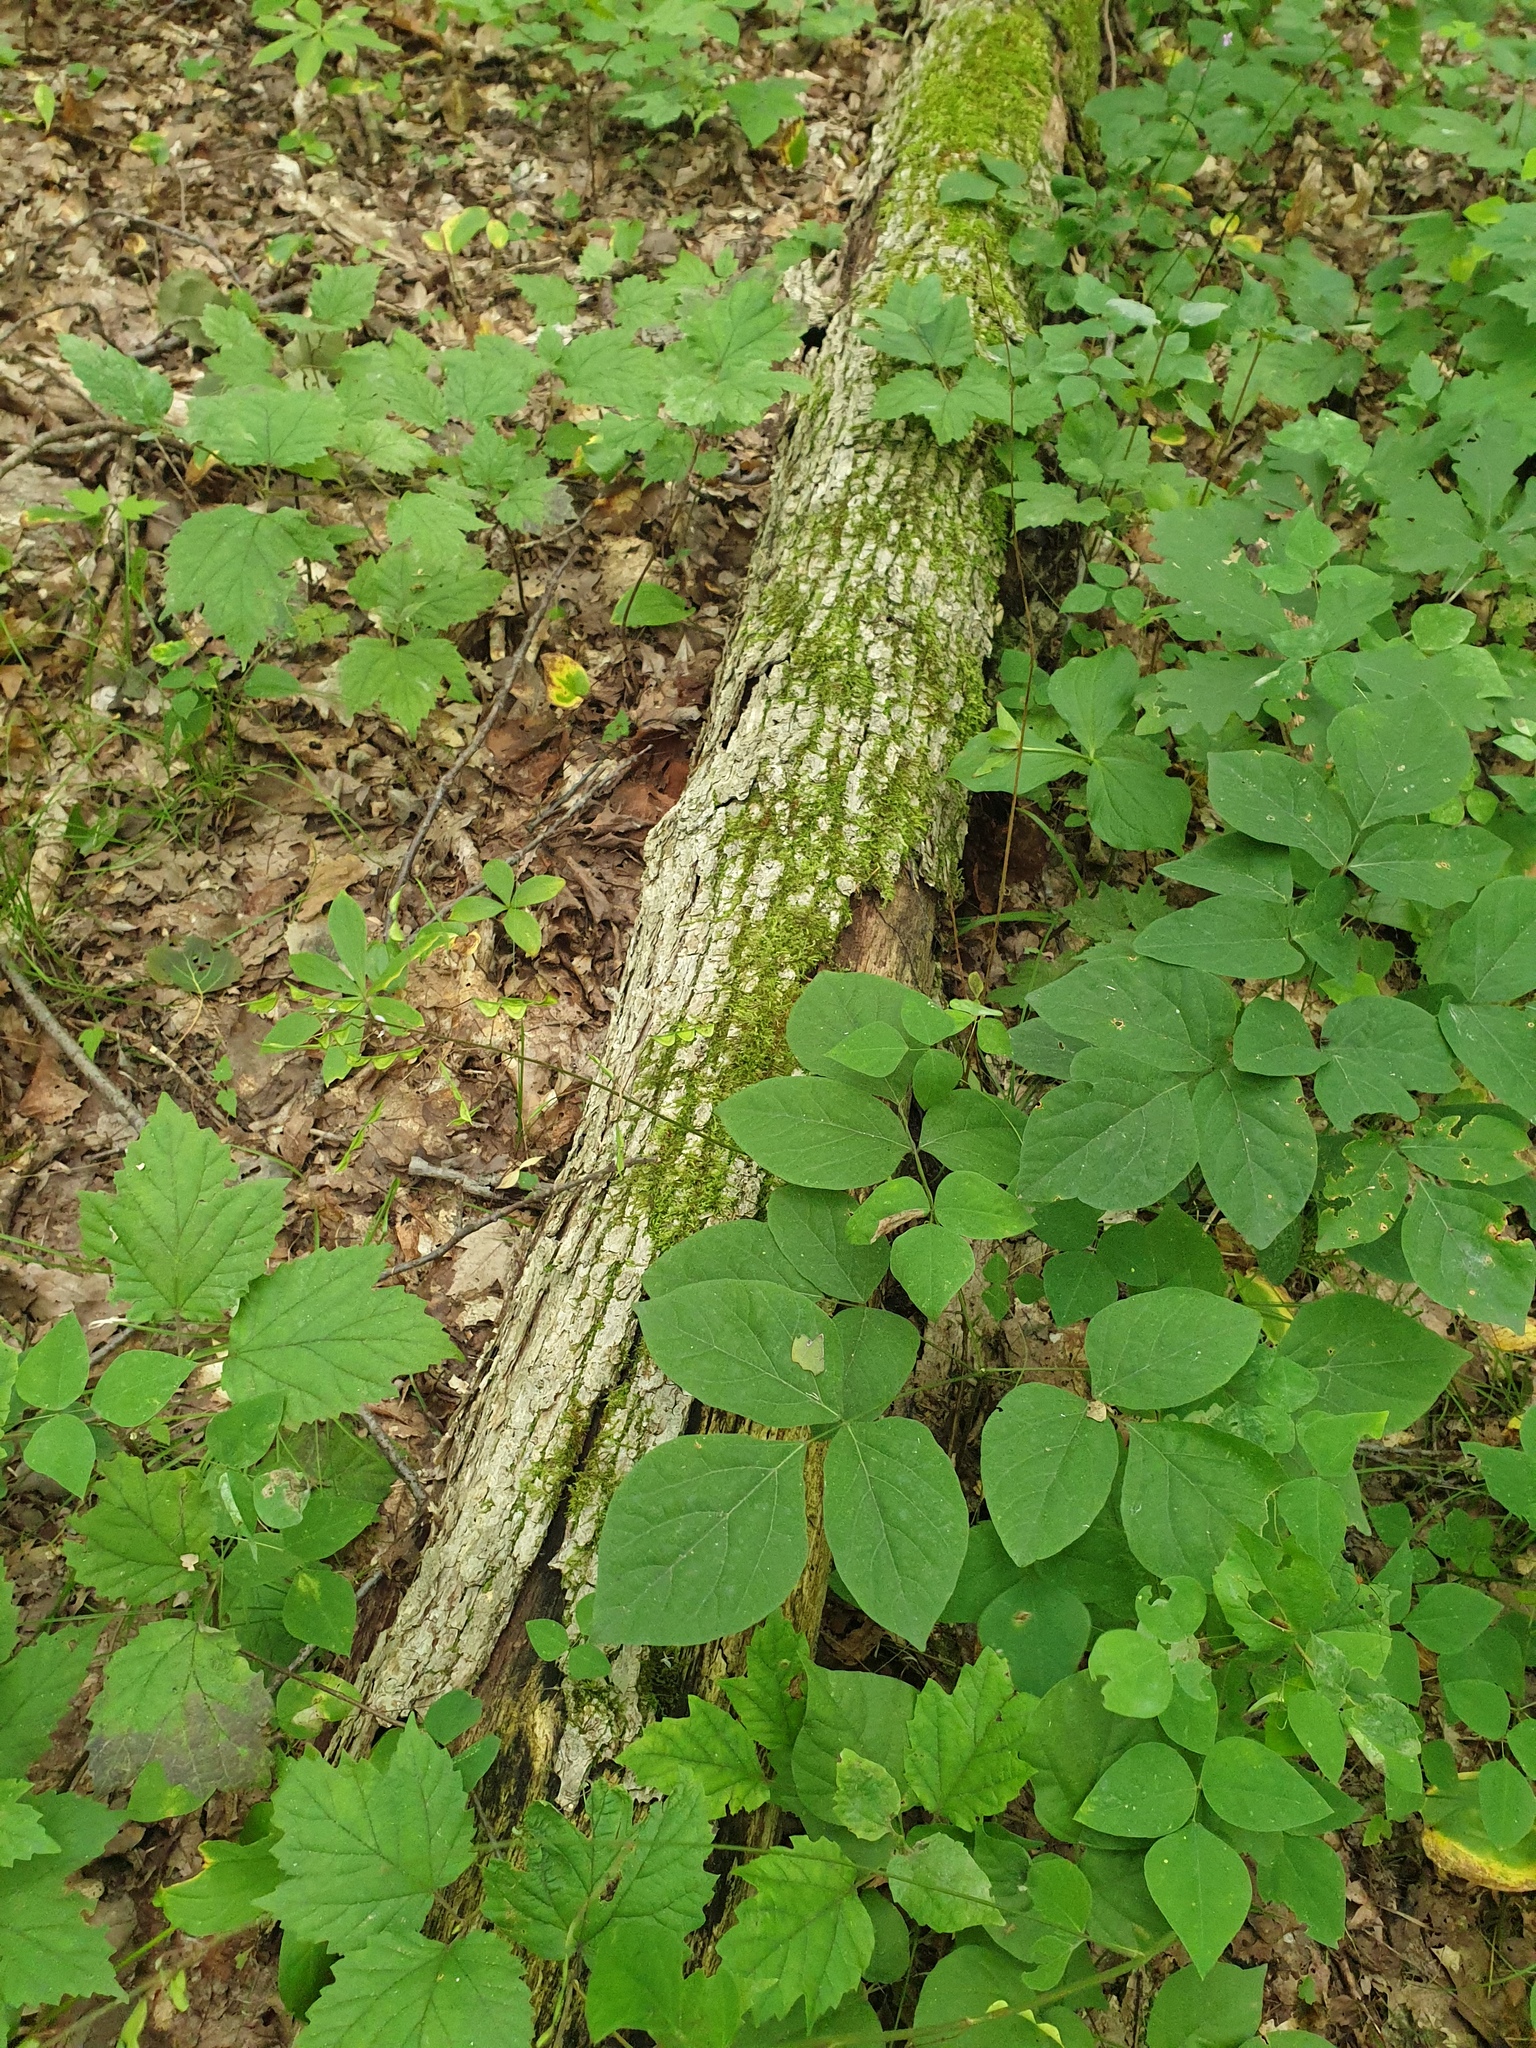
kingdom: Plantae
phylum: Tracheophyta
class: Magnoliopsida
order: Fabales
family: Fabaceae
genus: Hylodesmum
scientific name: Hylodesmum nudiflorum
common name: Bare-stemmed tick-trefoil
